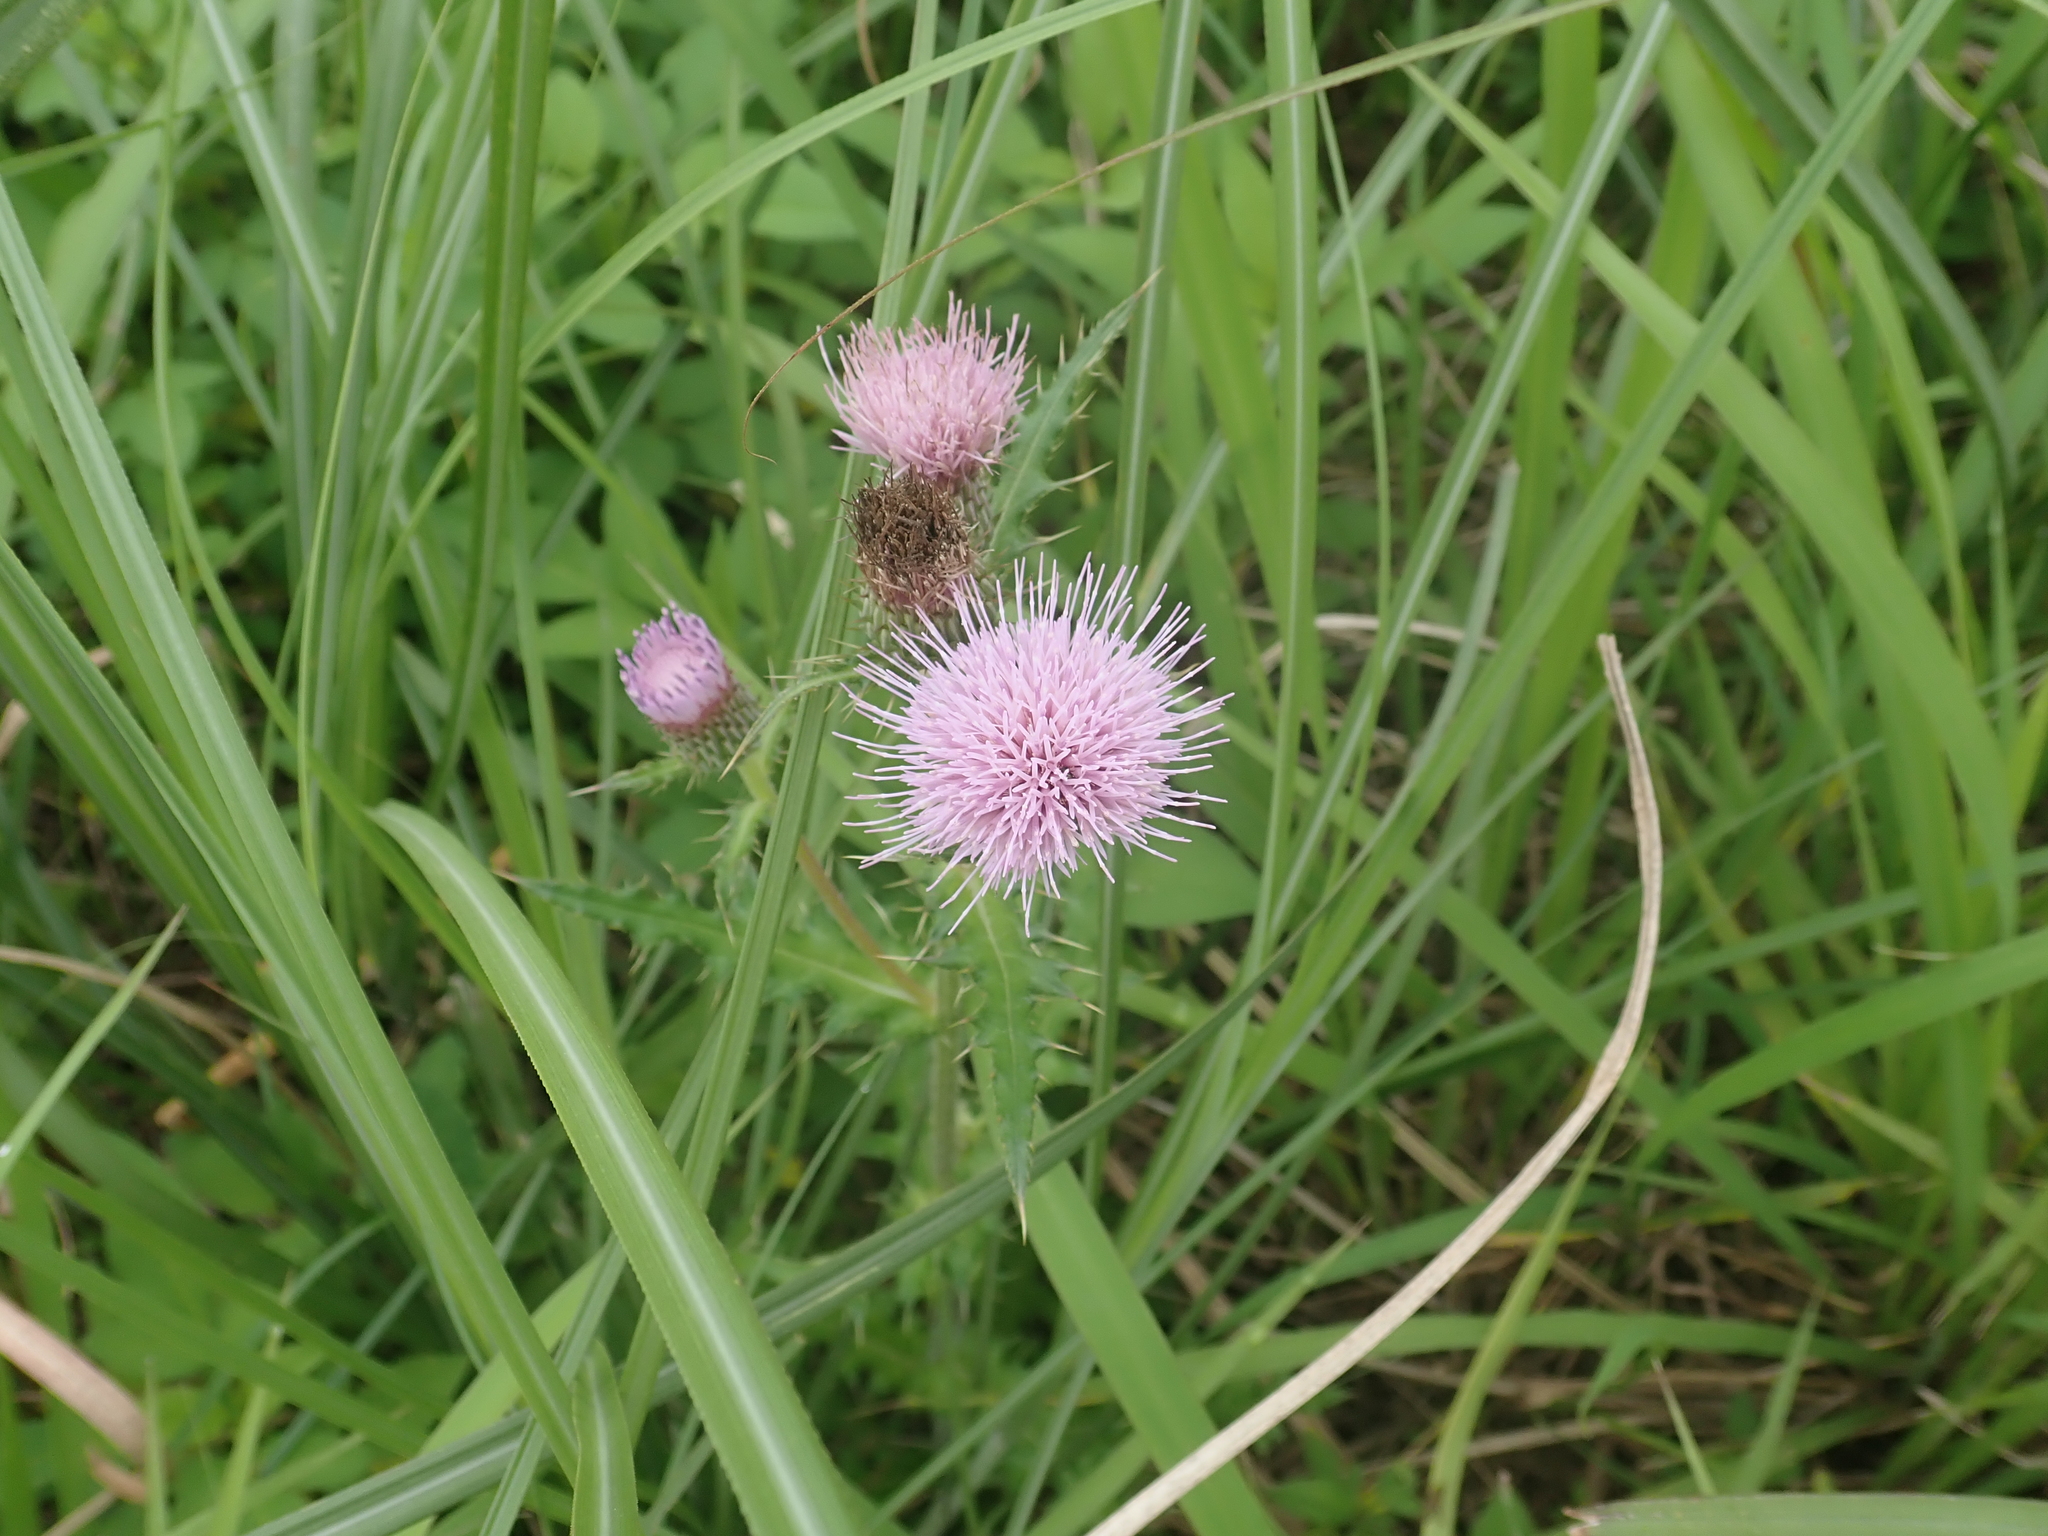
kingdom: Plantae
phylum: Tracheophyta
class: Magnoliopsida
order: Asterales
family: Asteraceae
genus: Cirsium
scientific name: Cirsium japonicum
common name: Japanese thistle
